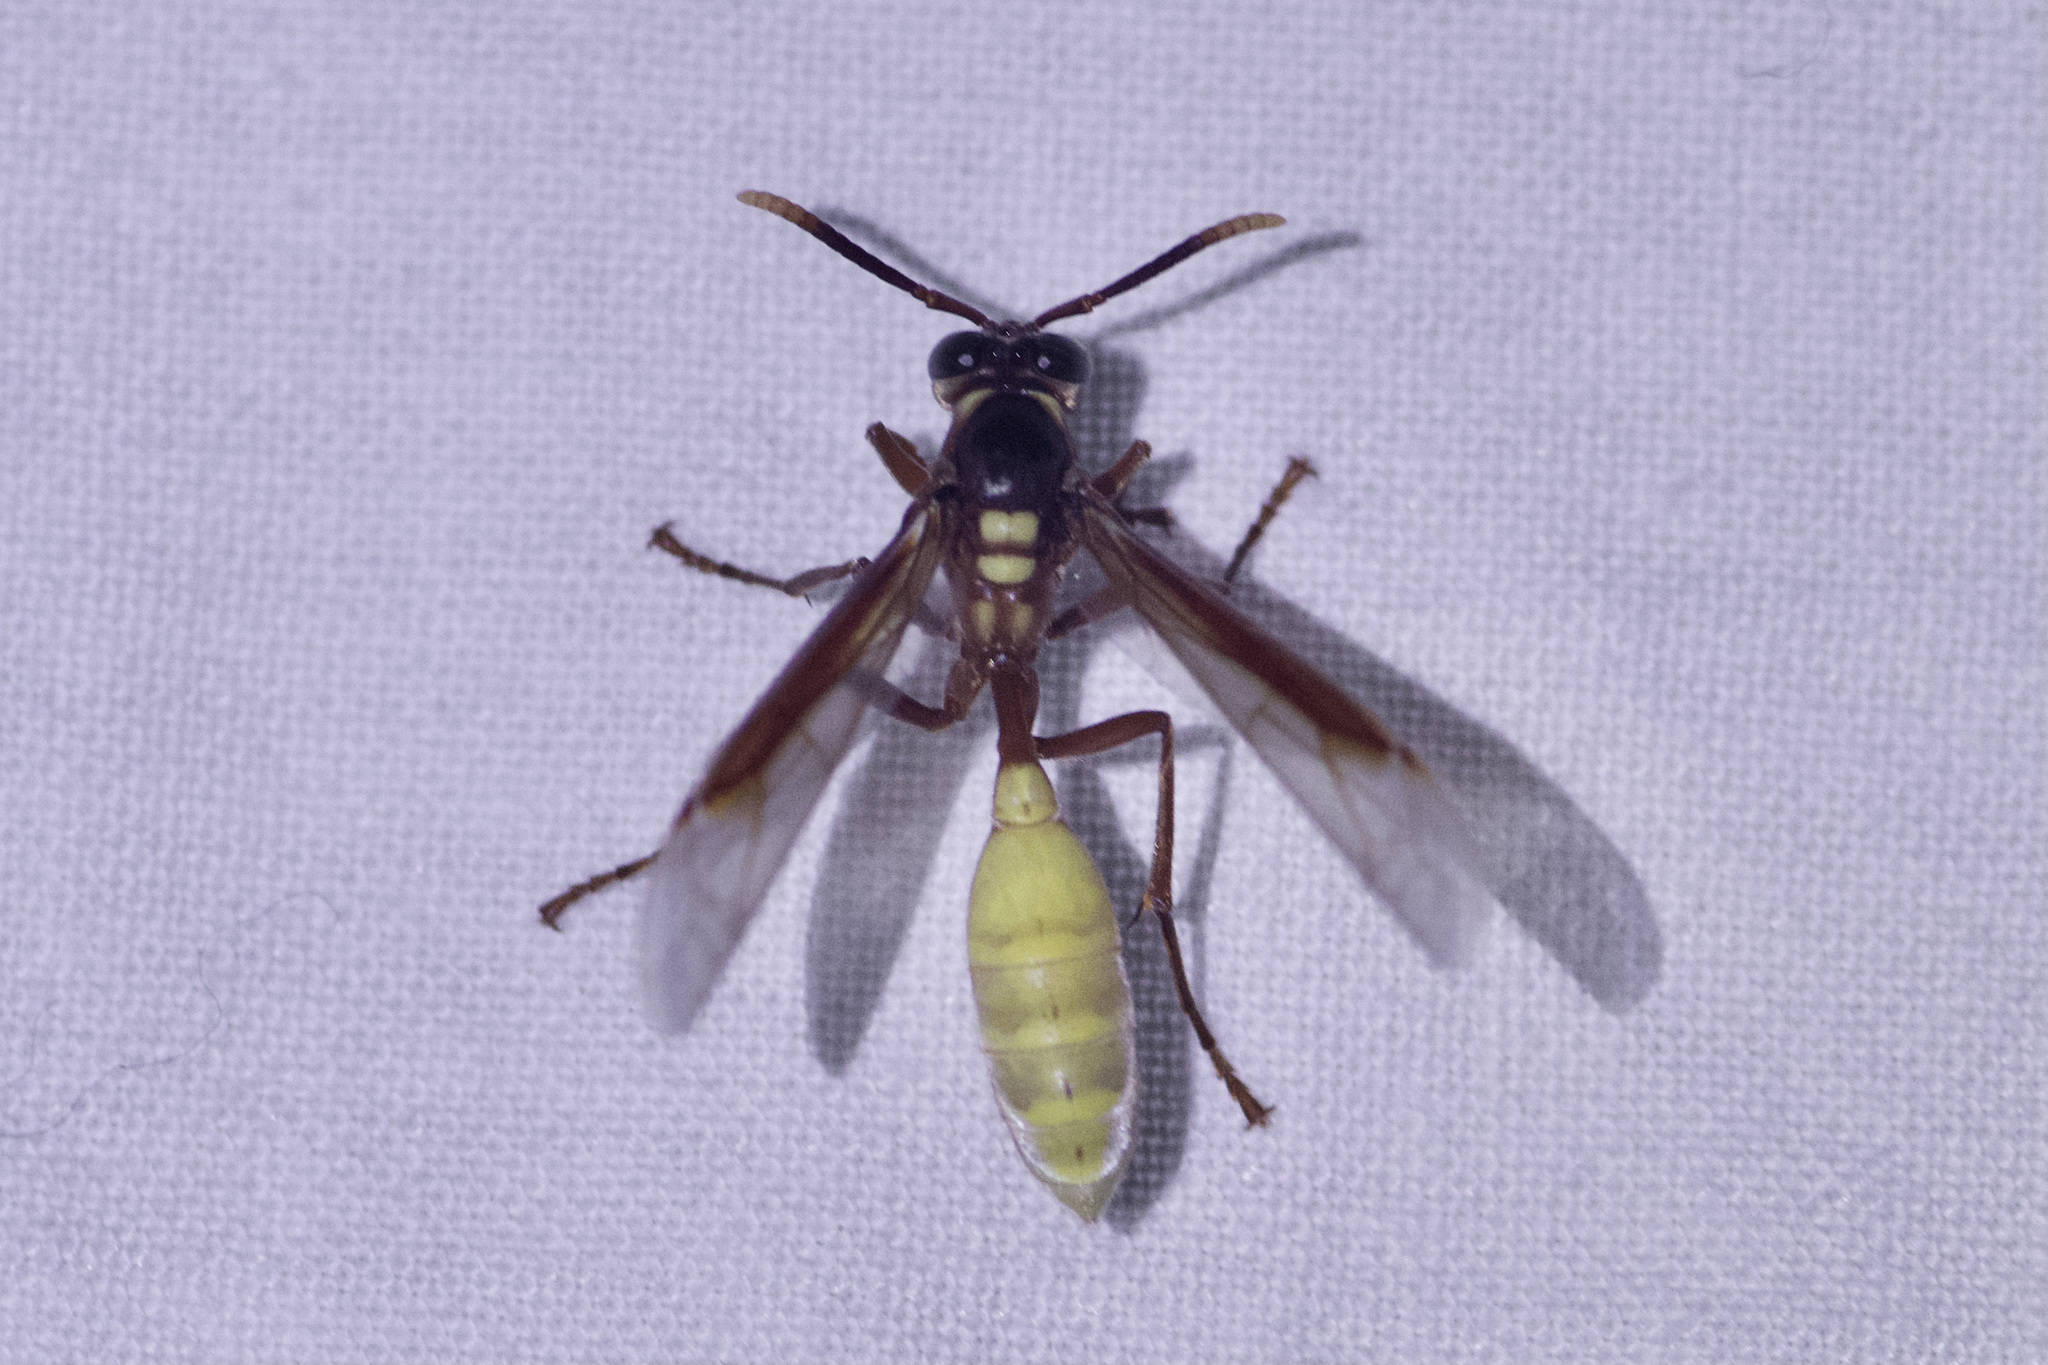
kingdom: Animalia
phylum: Arthropoda
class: Insecta
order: Hymenoptera
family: Vespidae
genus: Apoica
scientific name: Apoica pallens
